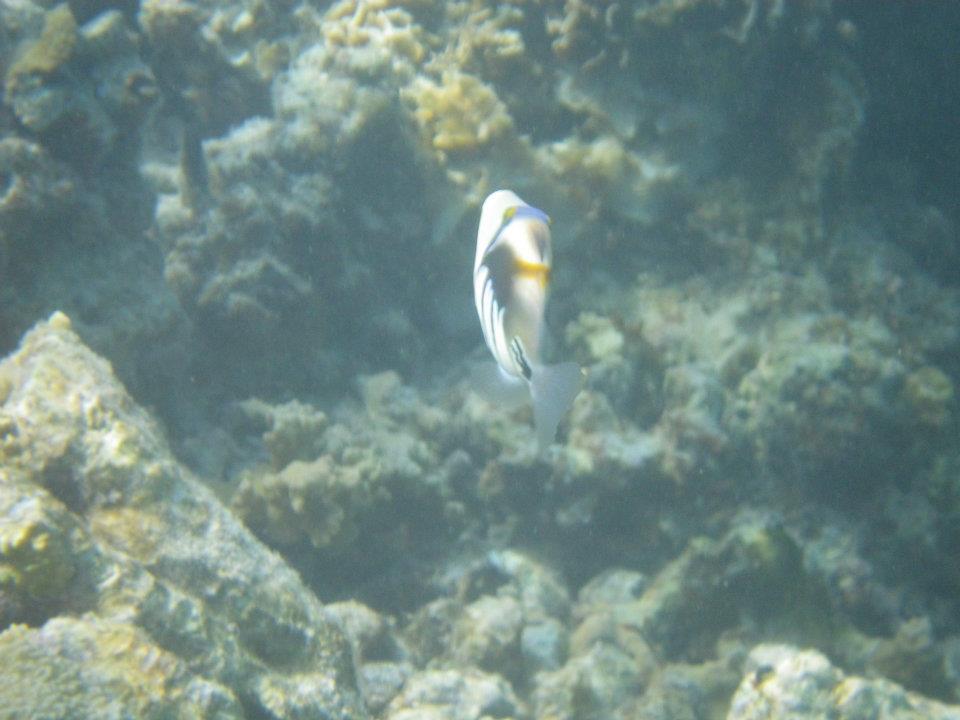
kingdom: Animalia
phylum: Chordata
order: Tetraodontiformes
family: Balistidae
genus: Rhinecanthus
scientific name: Rhinecanthus aculeatus
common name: White-banded triggerfish
